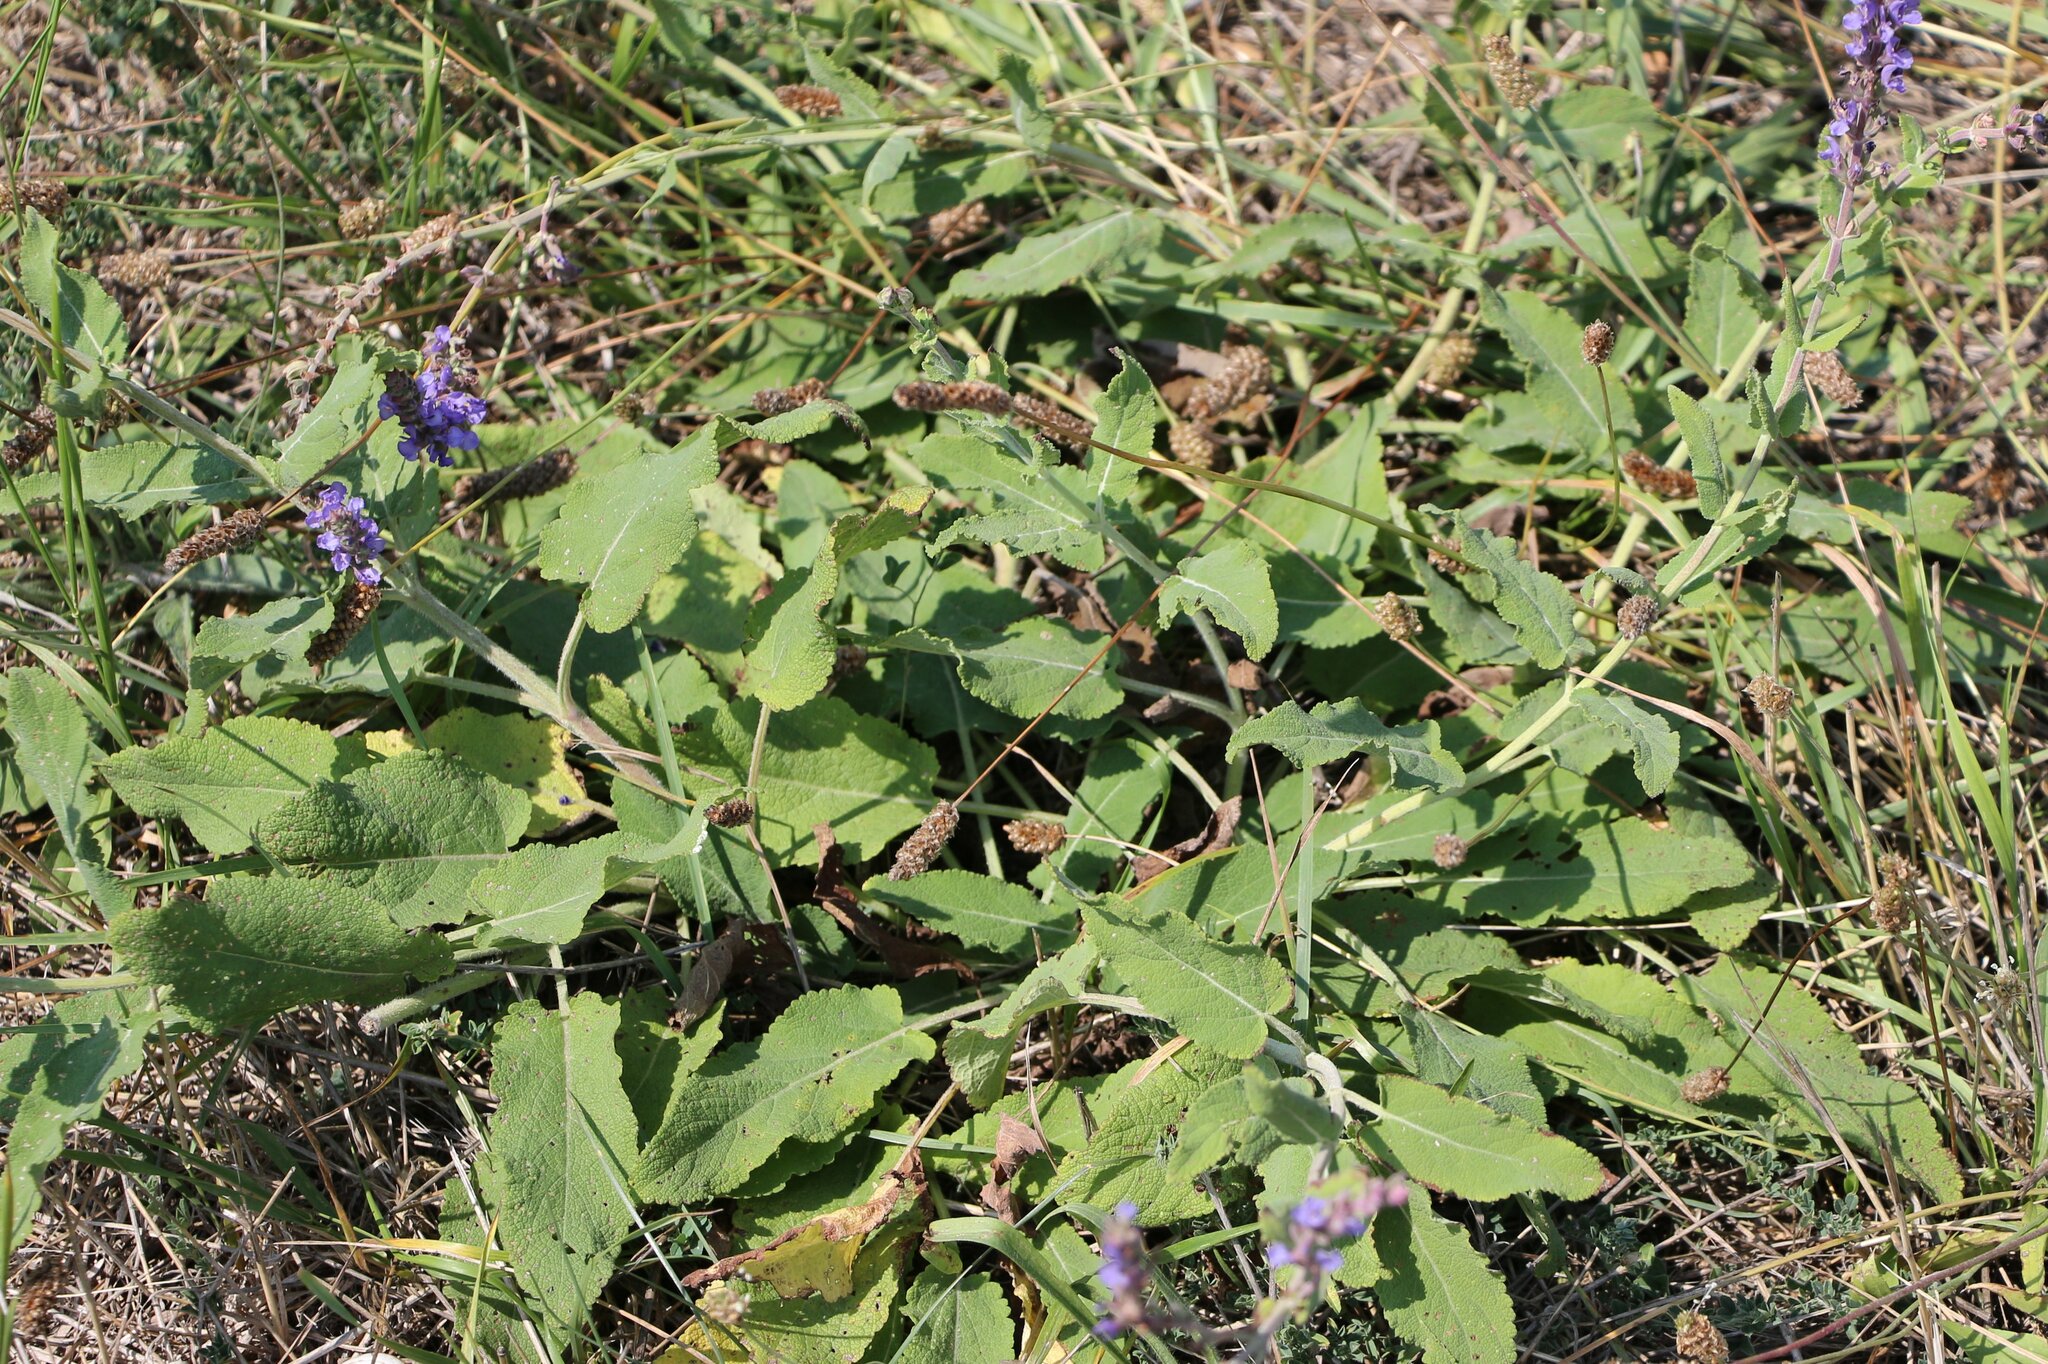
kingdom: Plantae
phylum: Tracheophyta
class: Magnoliopsida
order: Lamiales
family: Lamiaceae
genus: Salvia
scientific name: Salvia nemorosa
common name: Balkan clary
